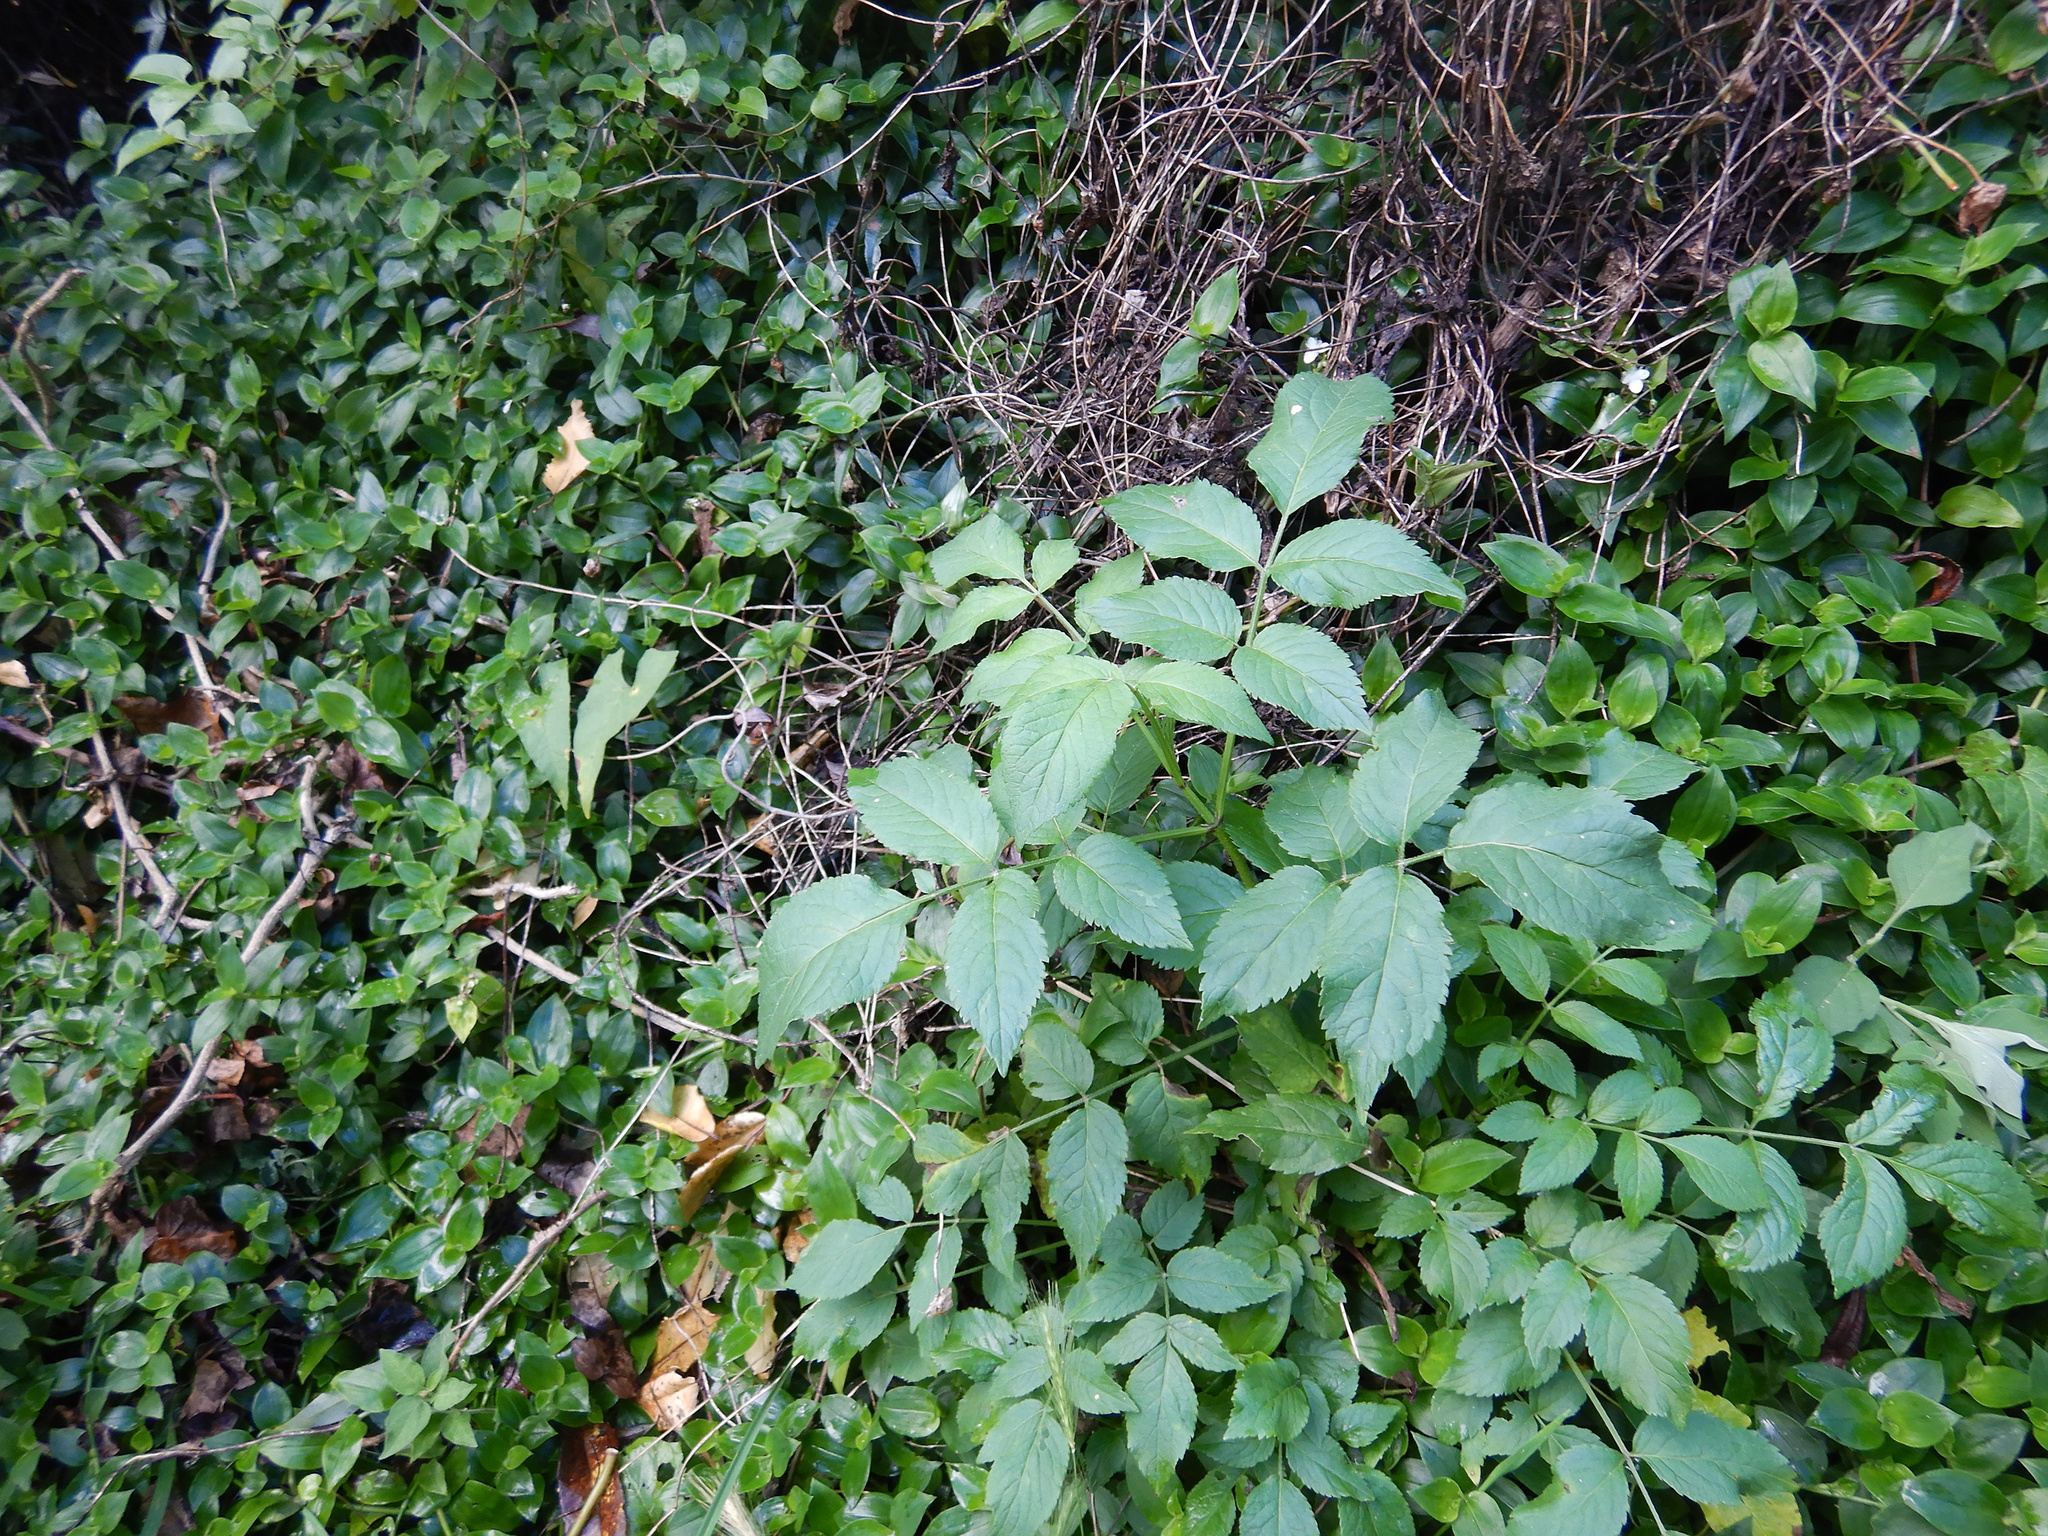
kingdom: Plantae
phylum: Tracheophyta
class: Magnoliopsida
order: Dipsacales
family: Viburnaceae
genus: Sambucus
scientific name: Sambucus nigra
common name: Elder
